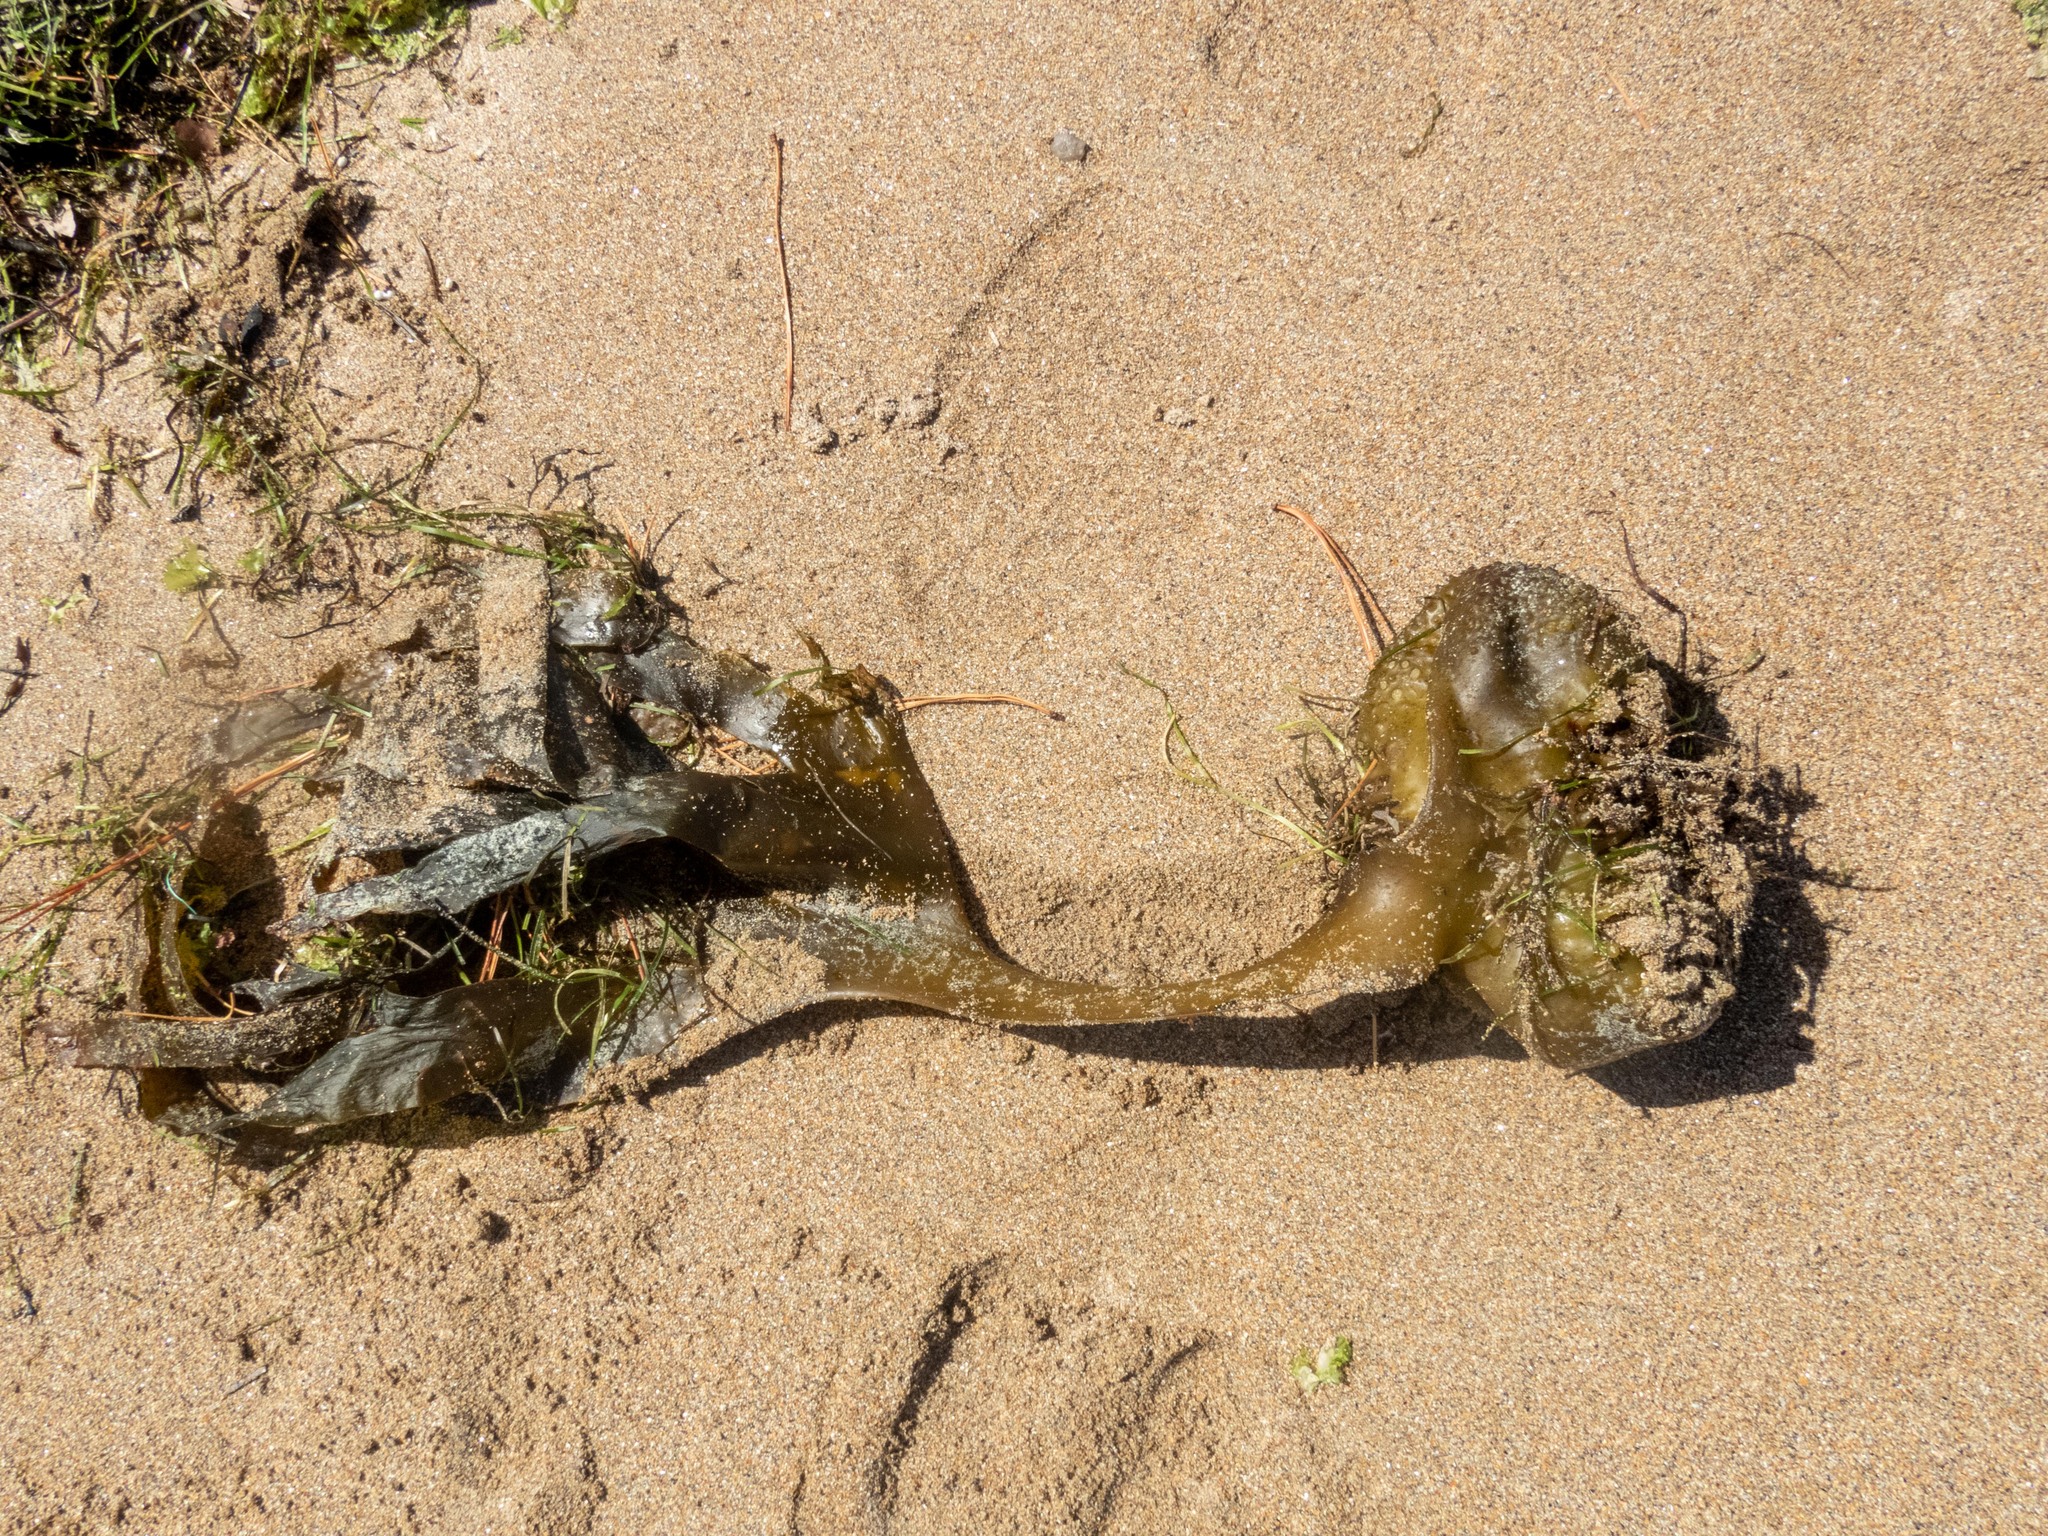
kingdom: Chromista
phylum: Ochrophyta
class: Phaeophyceae
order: Tilopteridales
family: Phyllariaceae
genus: Saccorhiza
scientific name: Saccorhiza polyschides
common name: Furbelows
